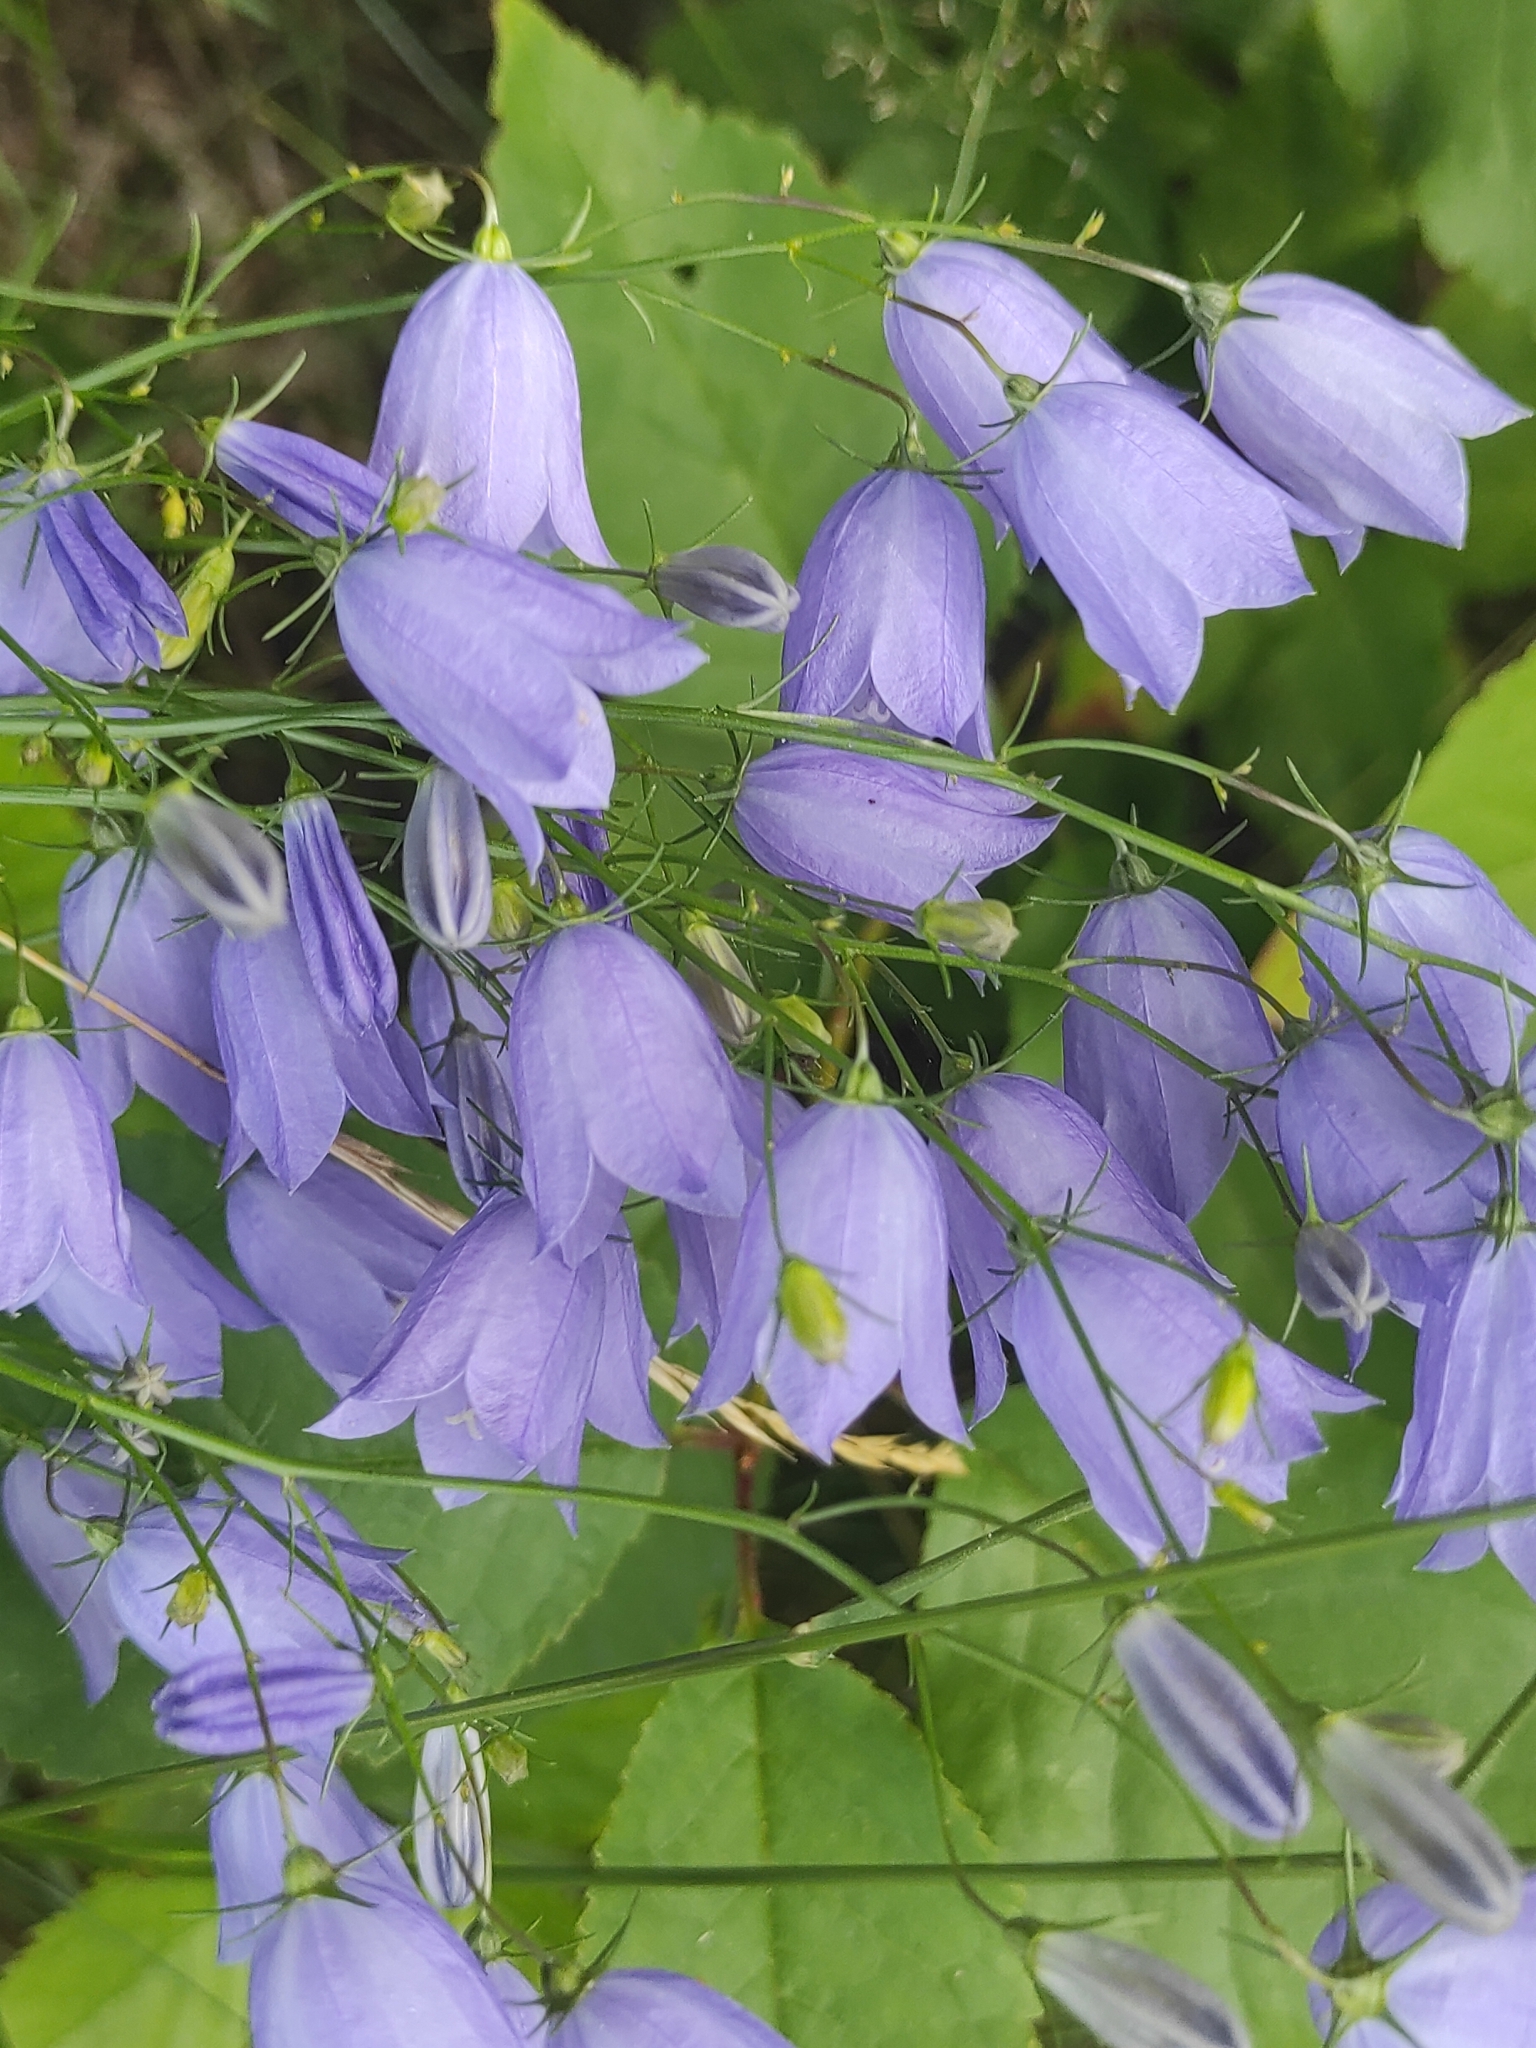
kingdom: Plantae
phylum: Tracheophyta
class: Magnoliopsida
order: Asterales
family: Campanulaceae
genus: Campanula
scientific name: Campanula rotundifolia
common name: Harebell
